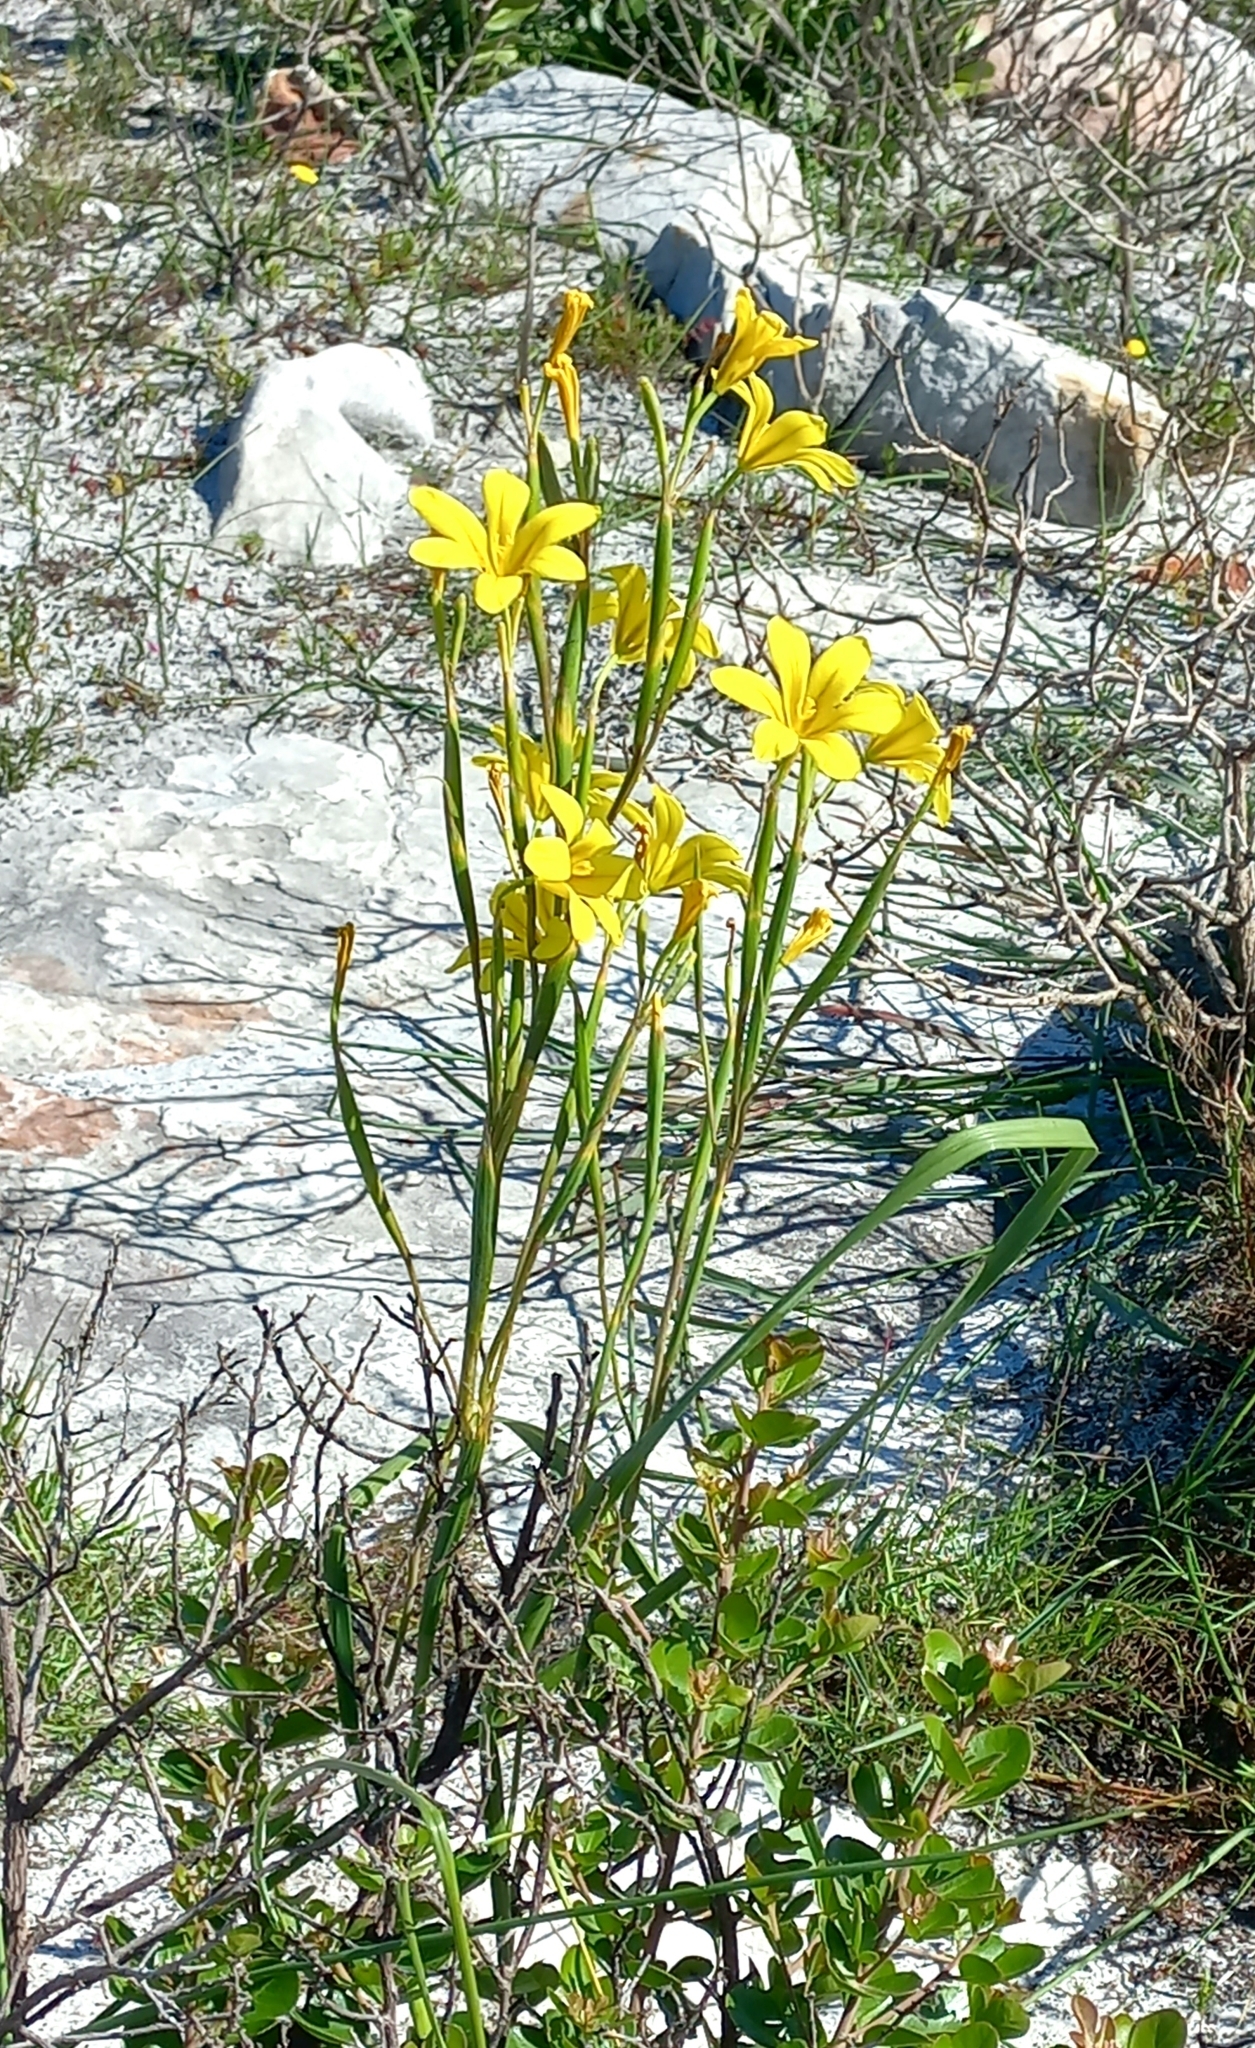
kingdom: Plantae
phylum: Tracheophyta
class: Liliopsida
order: Asparagales
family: Iridaceae
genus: Moraea
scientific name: Moraea ochroleuca
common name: Red tulp
